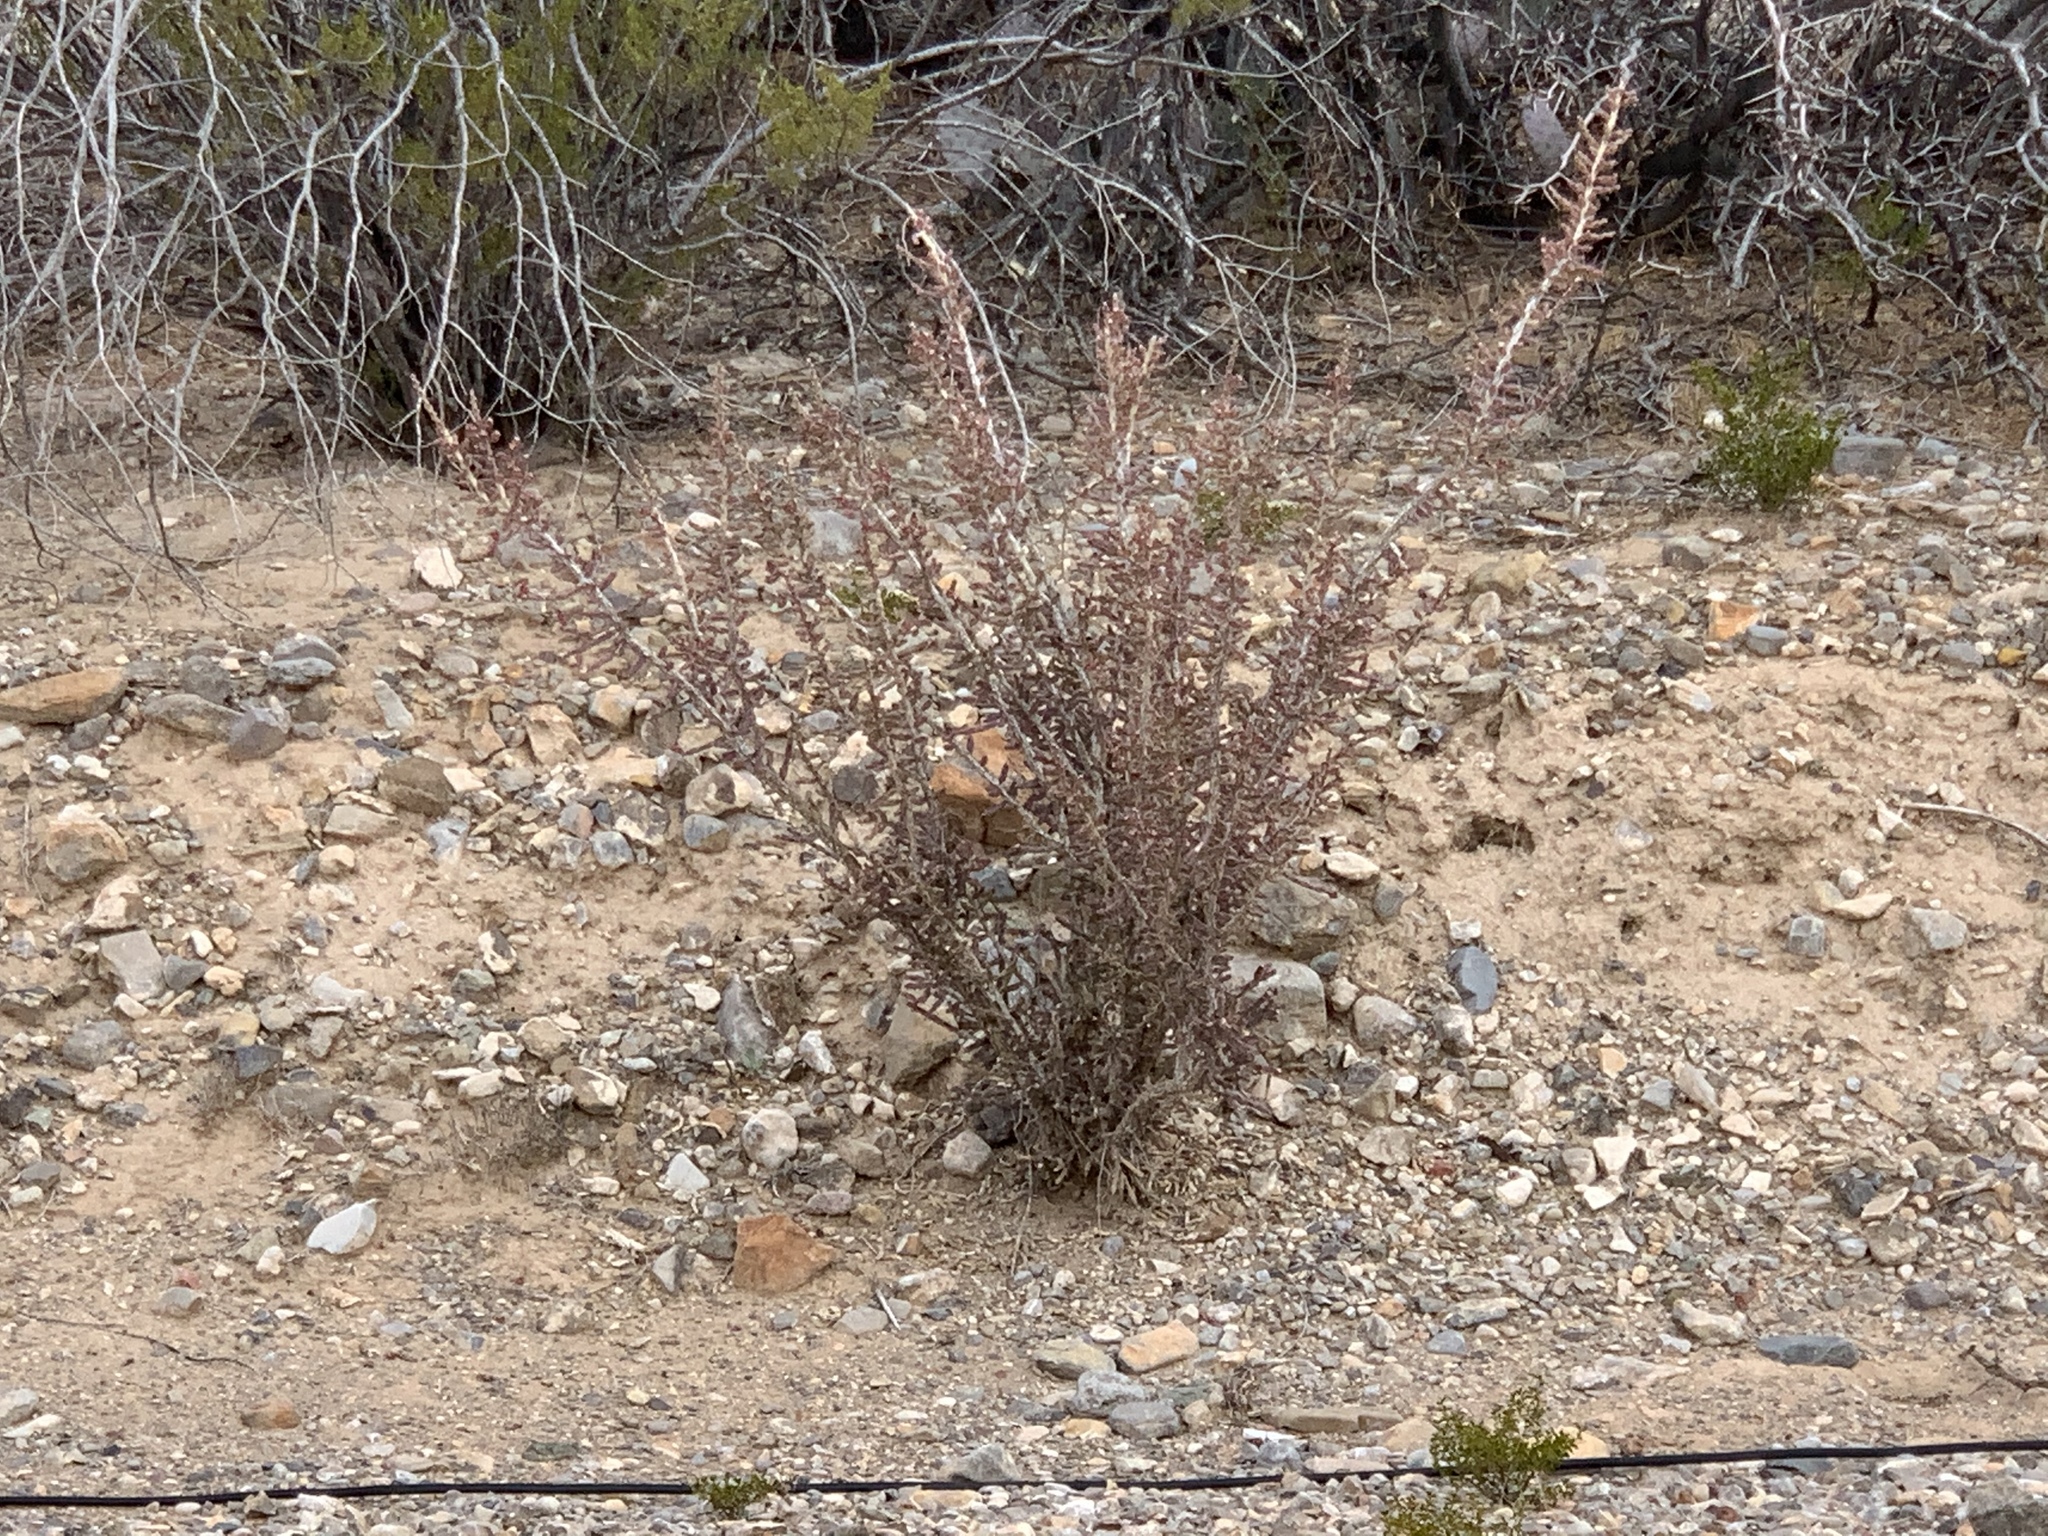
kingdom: Plantae
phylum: Tracheophyta
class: Magnoliopsida
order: Caryophyllales
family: Cactaceae
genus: Cylindropuntia
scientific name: Cylindropuntia leptocaulis
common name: Christmas cactus
